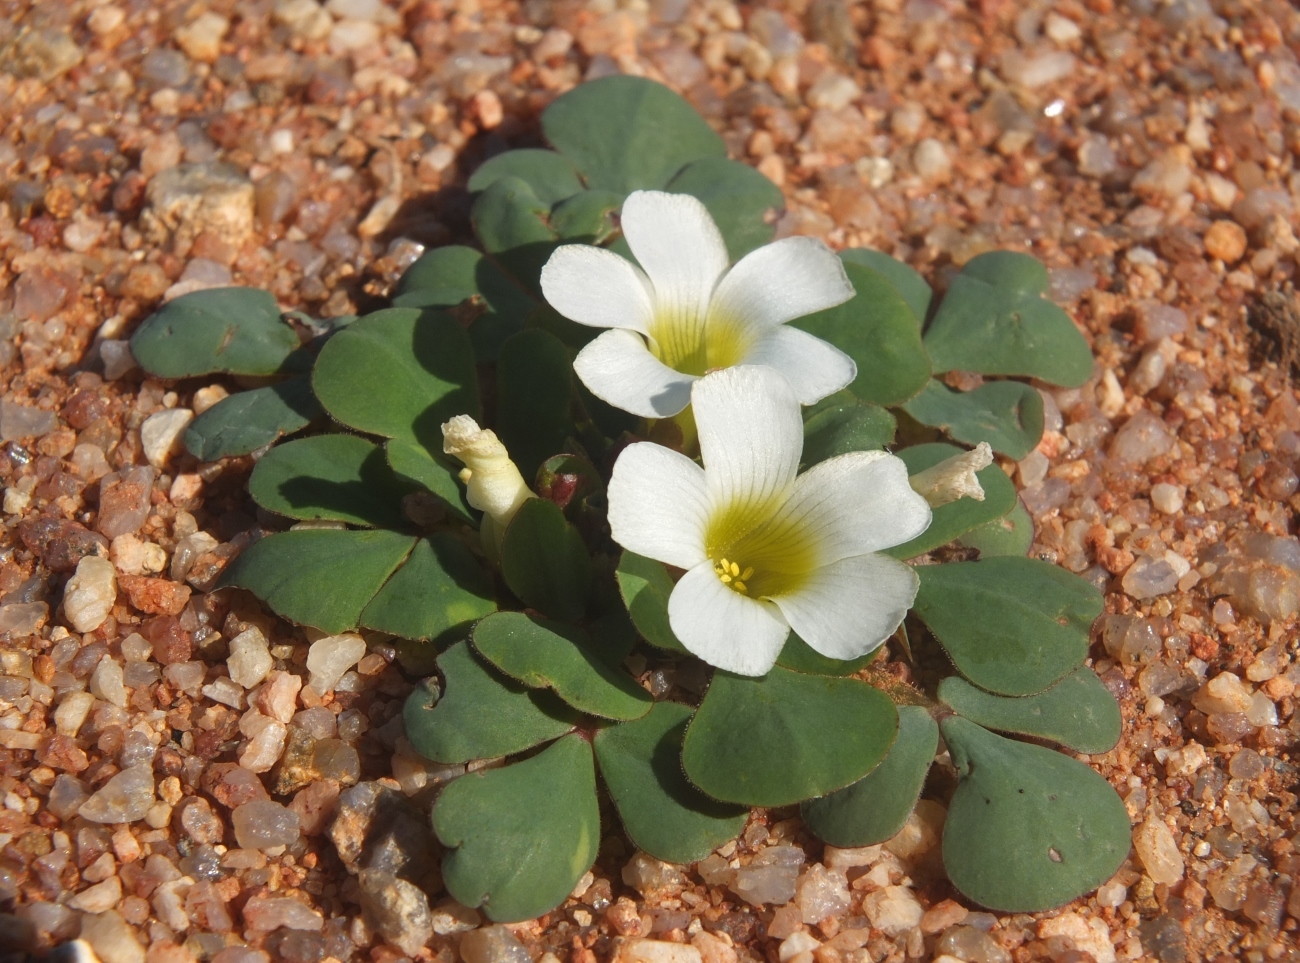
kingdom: Plantae
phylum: Tracheophyta
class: Magnoliopsida
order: Oxalidales
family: Oxalidaceae
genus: Oxalis
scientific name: Oxalis purpurea
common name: Purple woodsorrel
